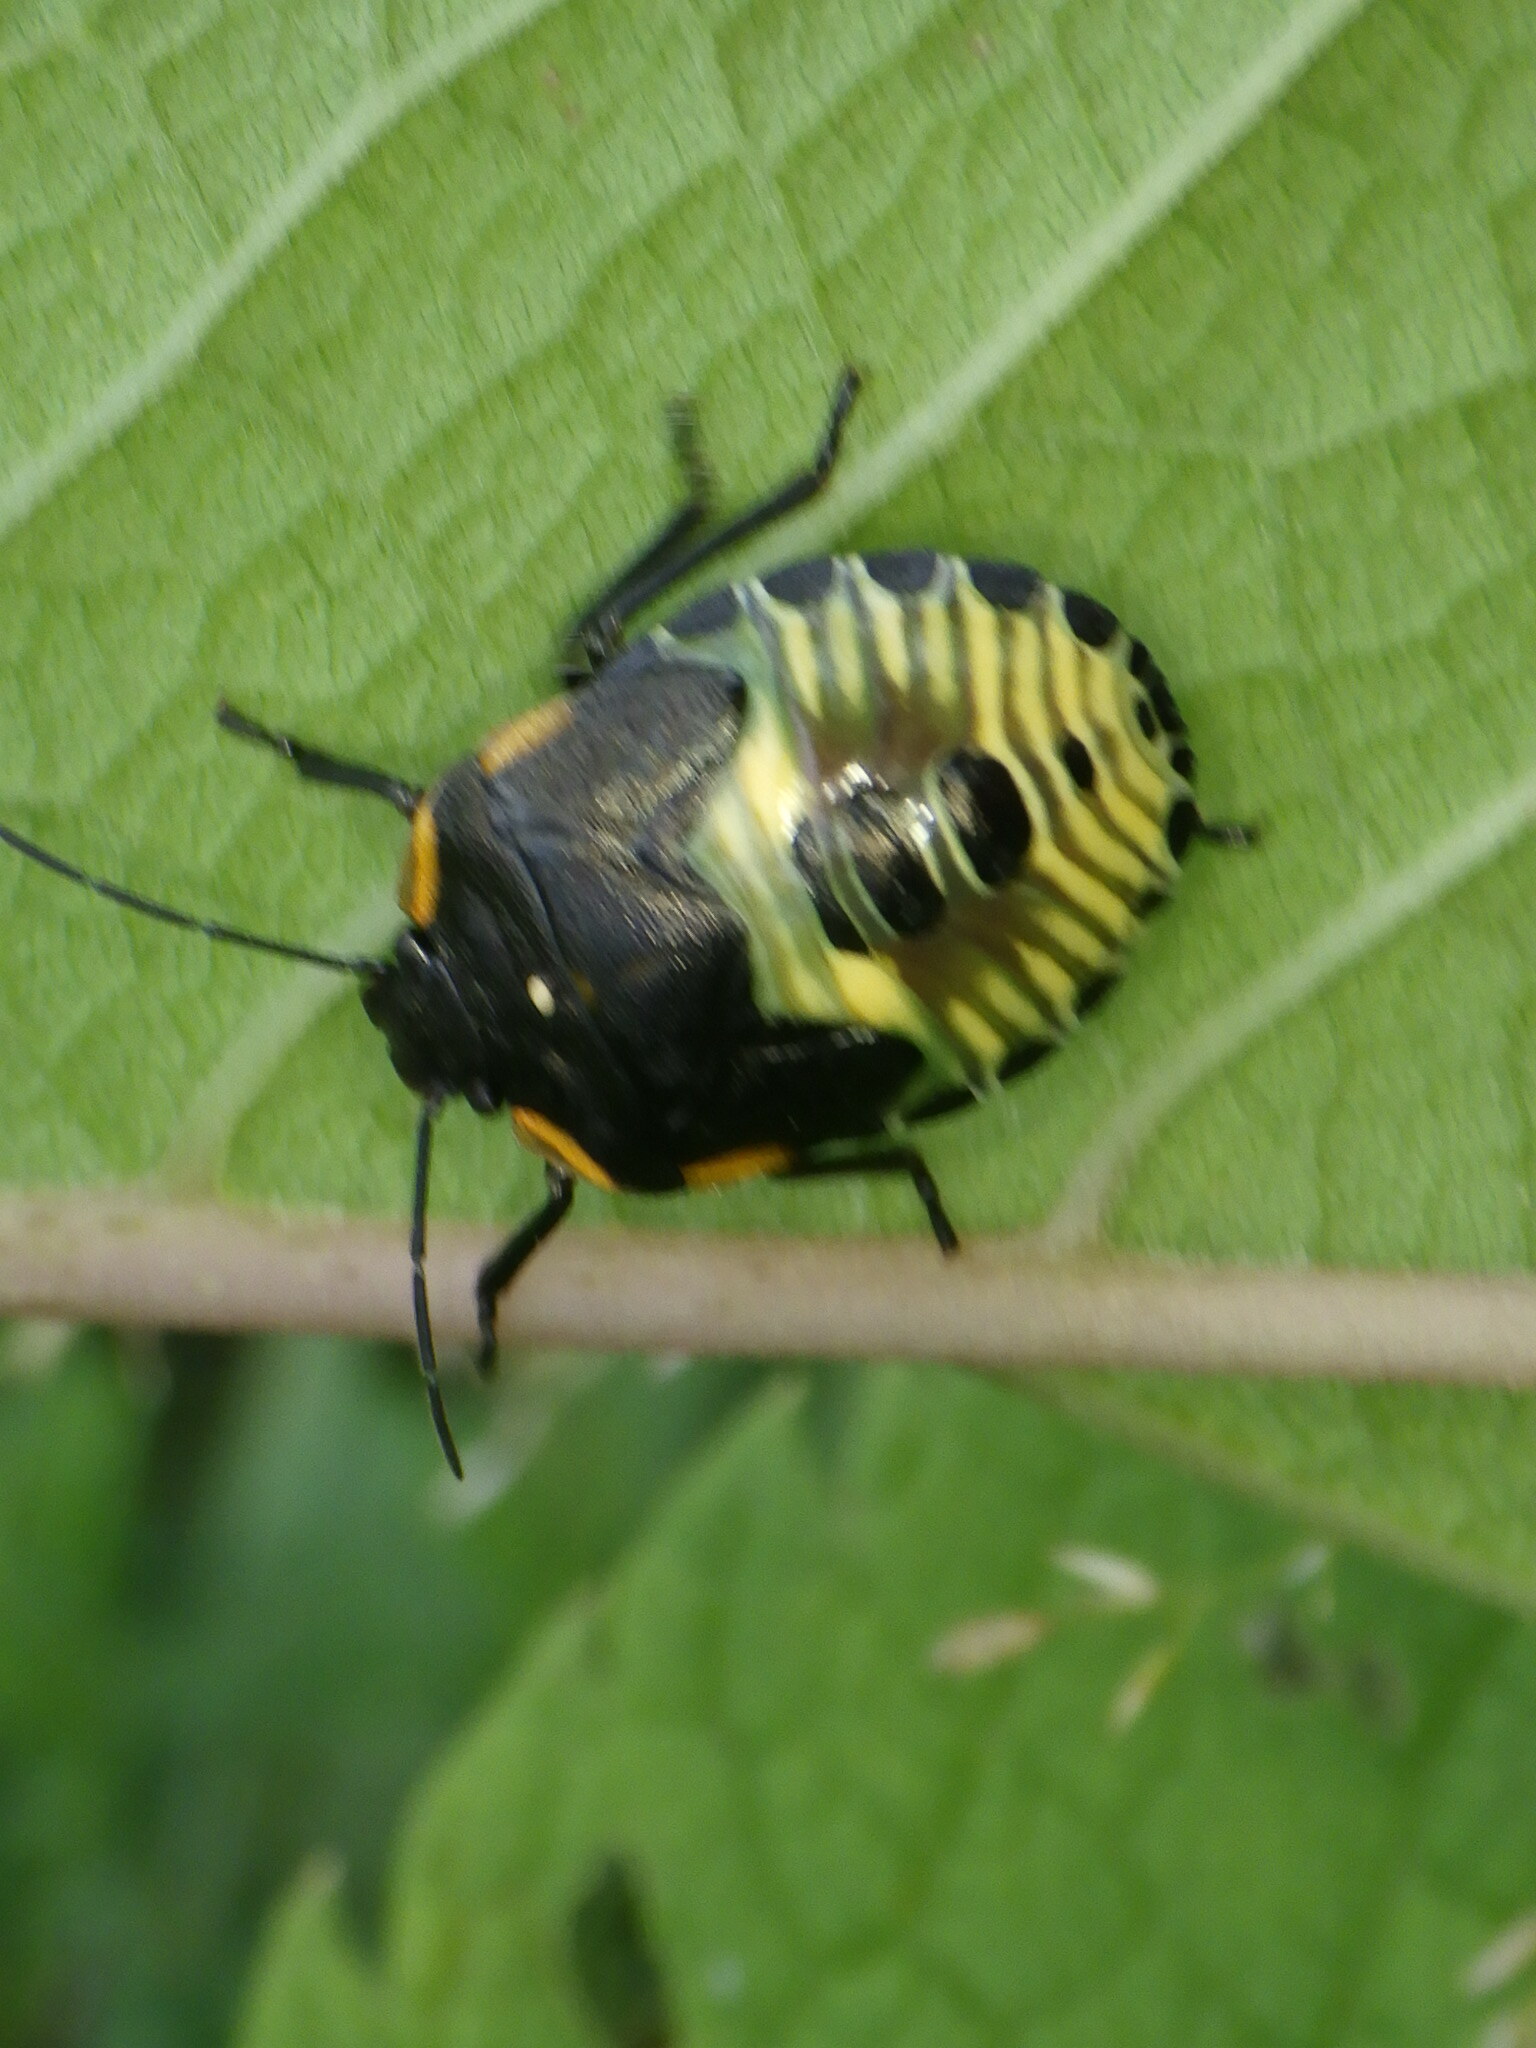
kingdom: Animalia
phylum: Arthropoda
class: Insecta
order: Hemiptera
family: Pentatomidae
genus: Chinavia
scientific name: Chinavia hilaris
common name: Green stink bug
